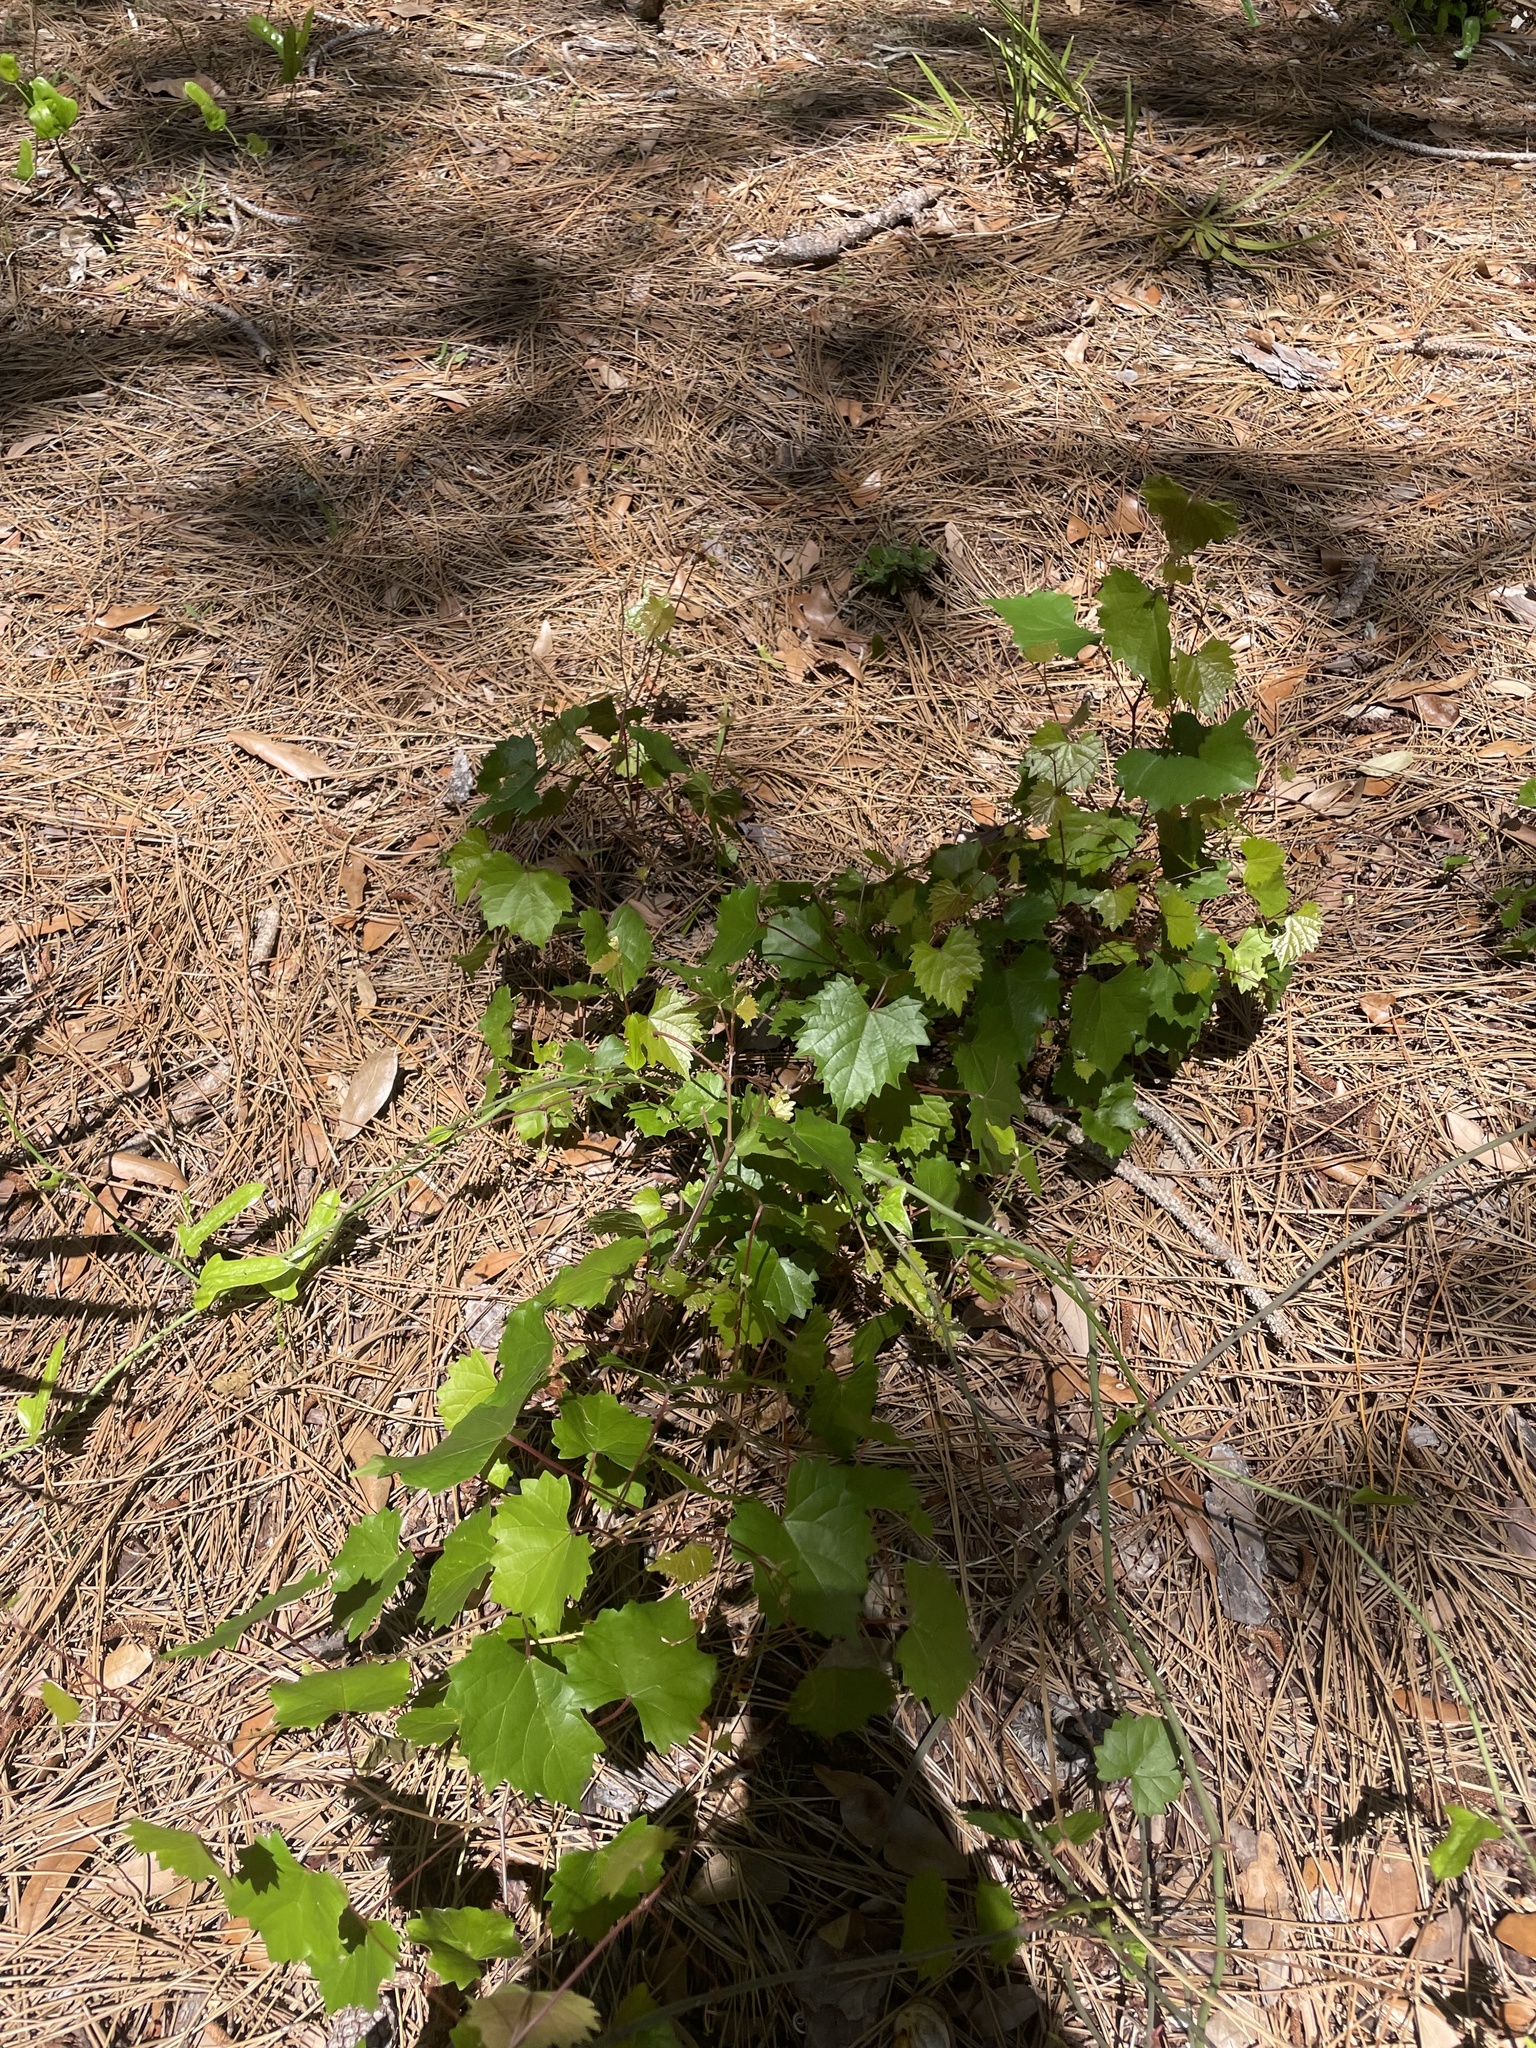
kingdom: Plantae
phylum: Tracheophyta
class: Magnoliopsida
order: Vitales
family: Vitaceae
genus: Vitis
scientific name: Vitis rotundifolia
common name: Muscadine grape
